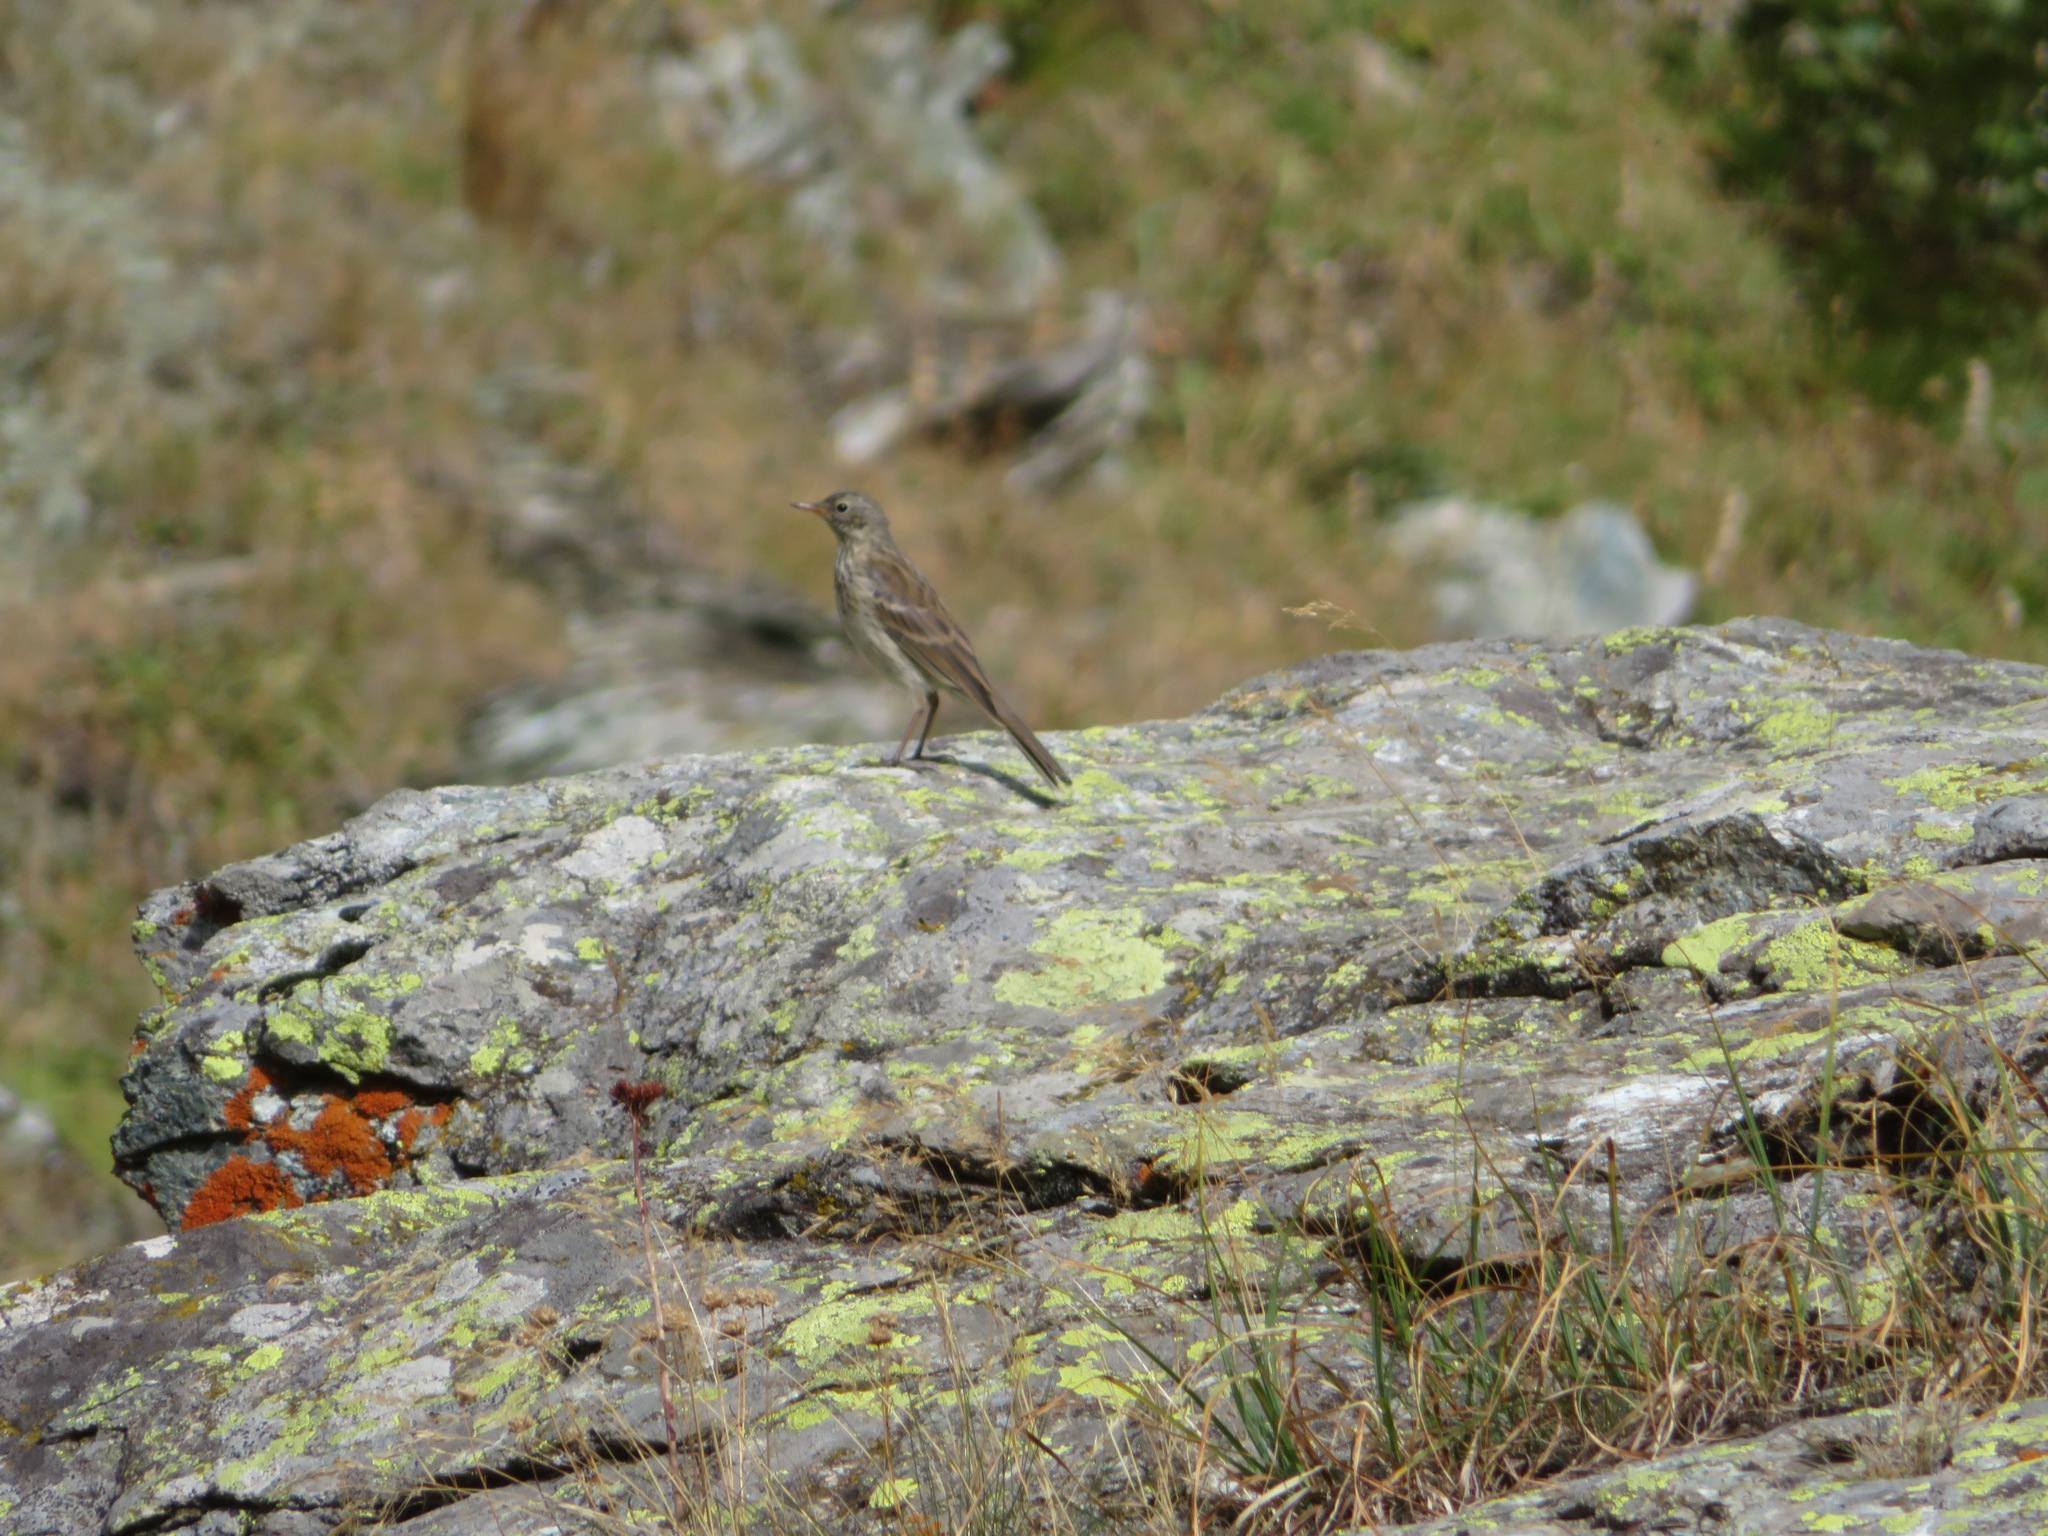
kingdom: Animalia
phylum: Chordata
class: Aves
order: Passeriformes
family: Motacillidae
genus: Anthus
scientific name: Anthus spinoletta
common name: Water pipit
